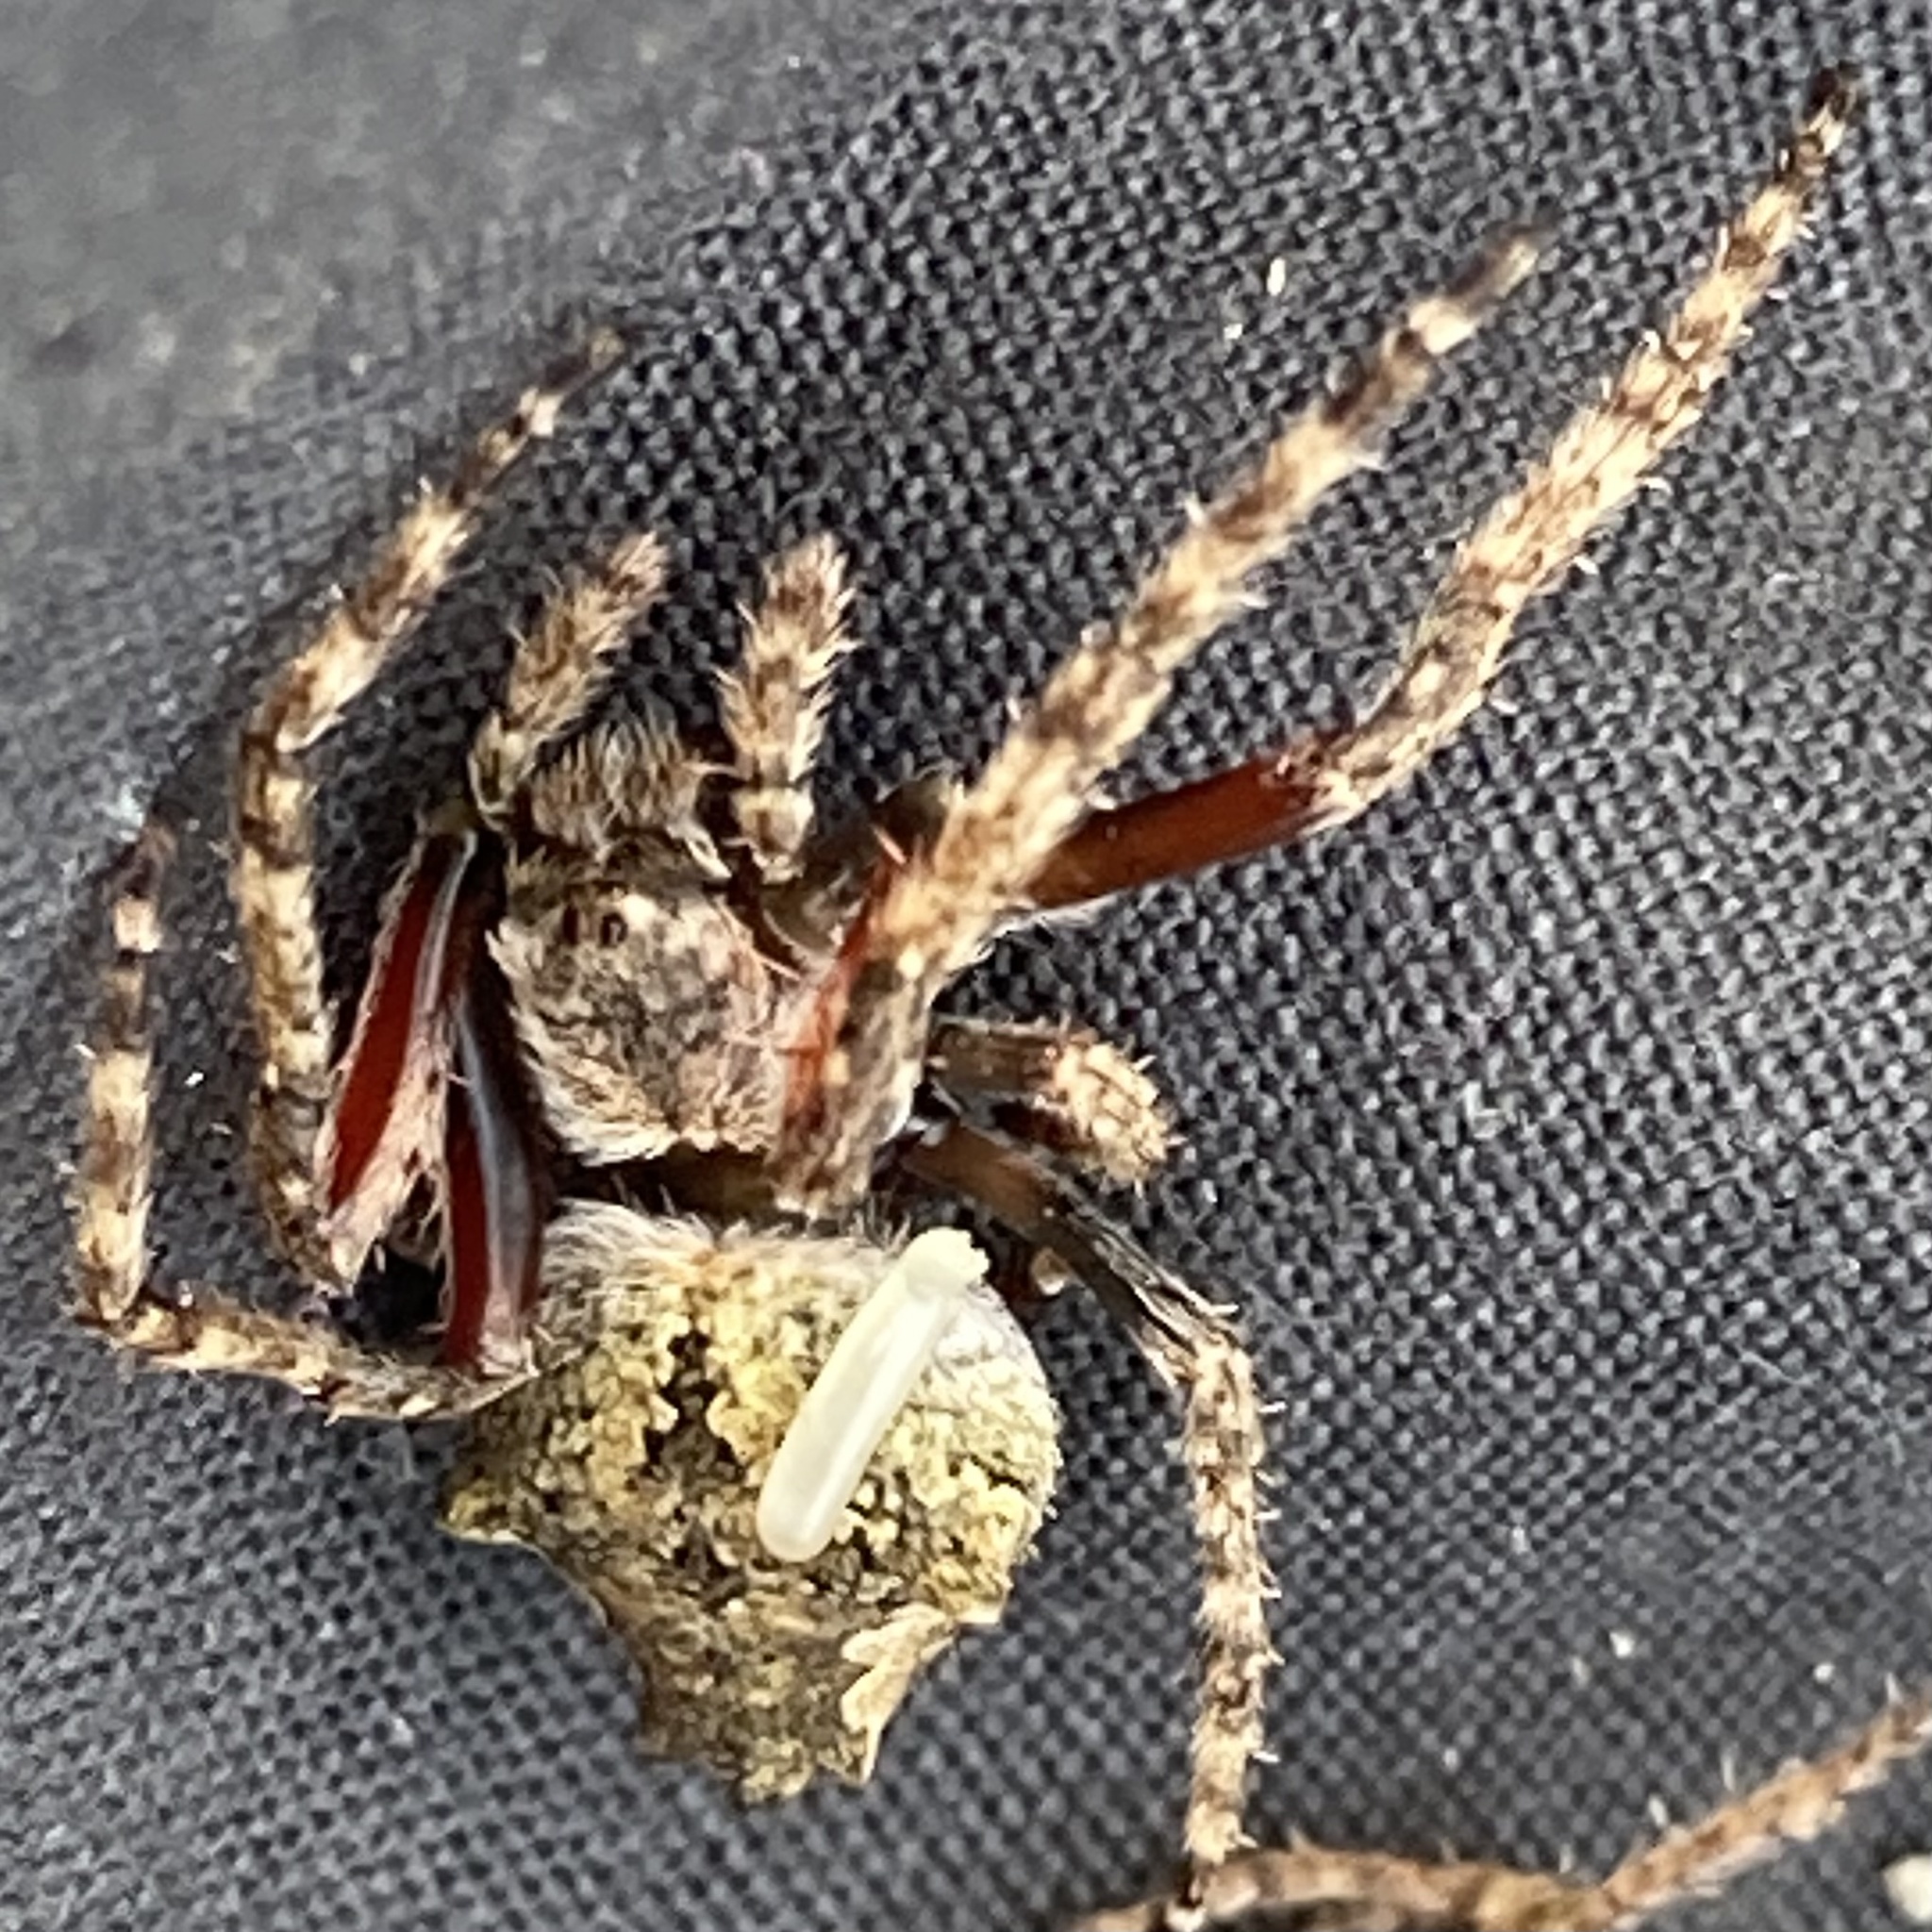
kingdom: Animalia
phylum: Arthropoda
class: Arachnida
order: Araneae
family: Araneidae
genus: Eriophora
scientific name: Eriophora pustulosa
